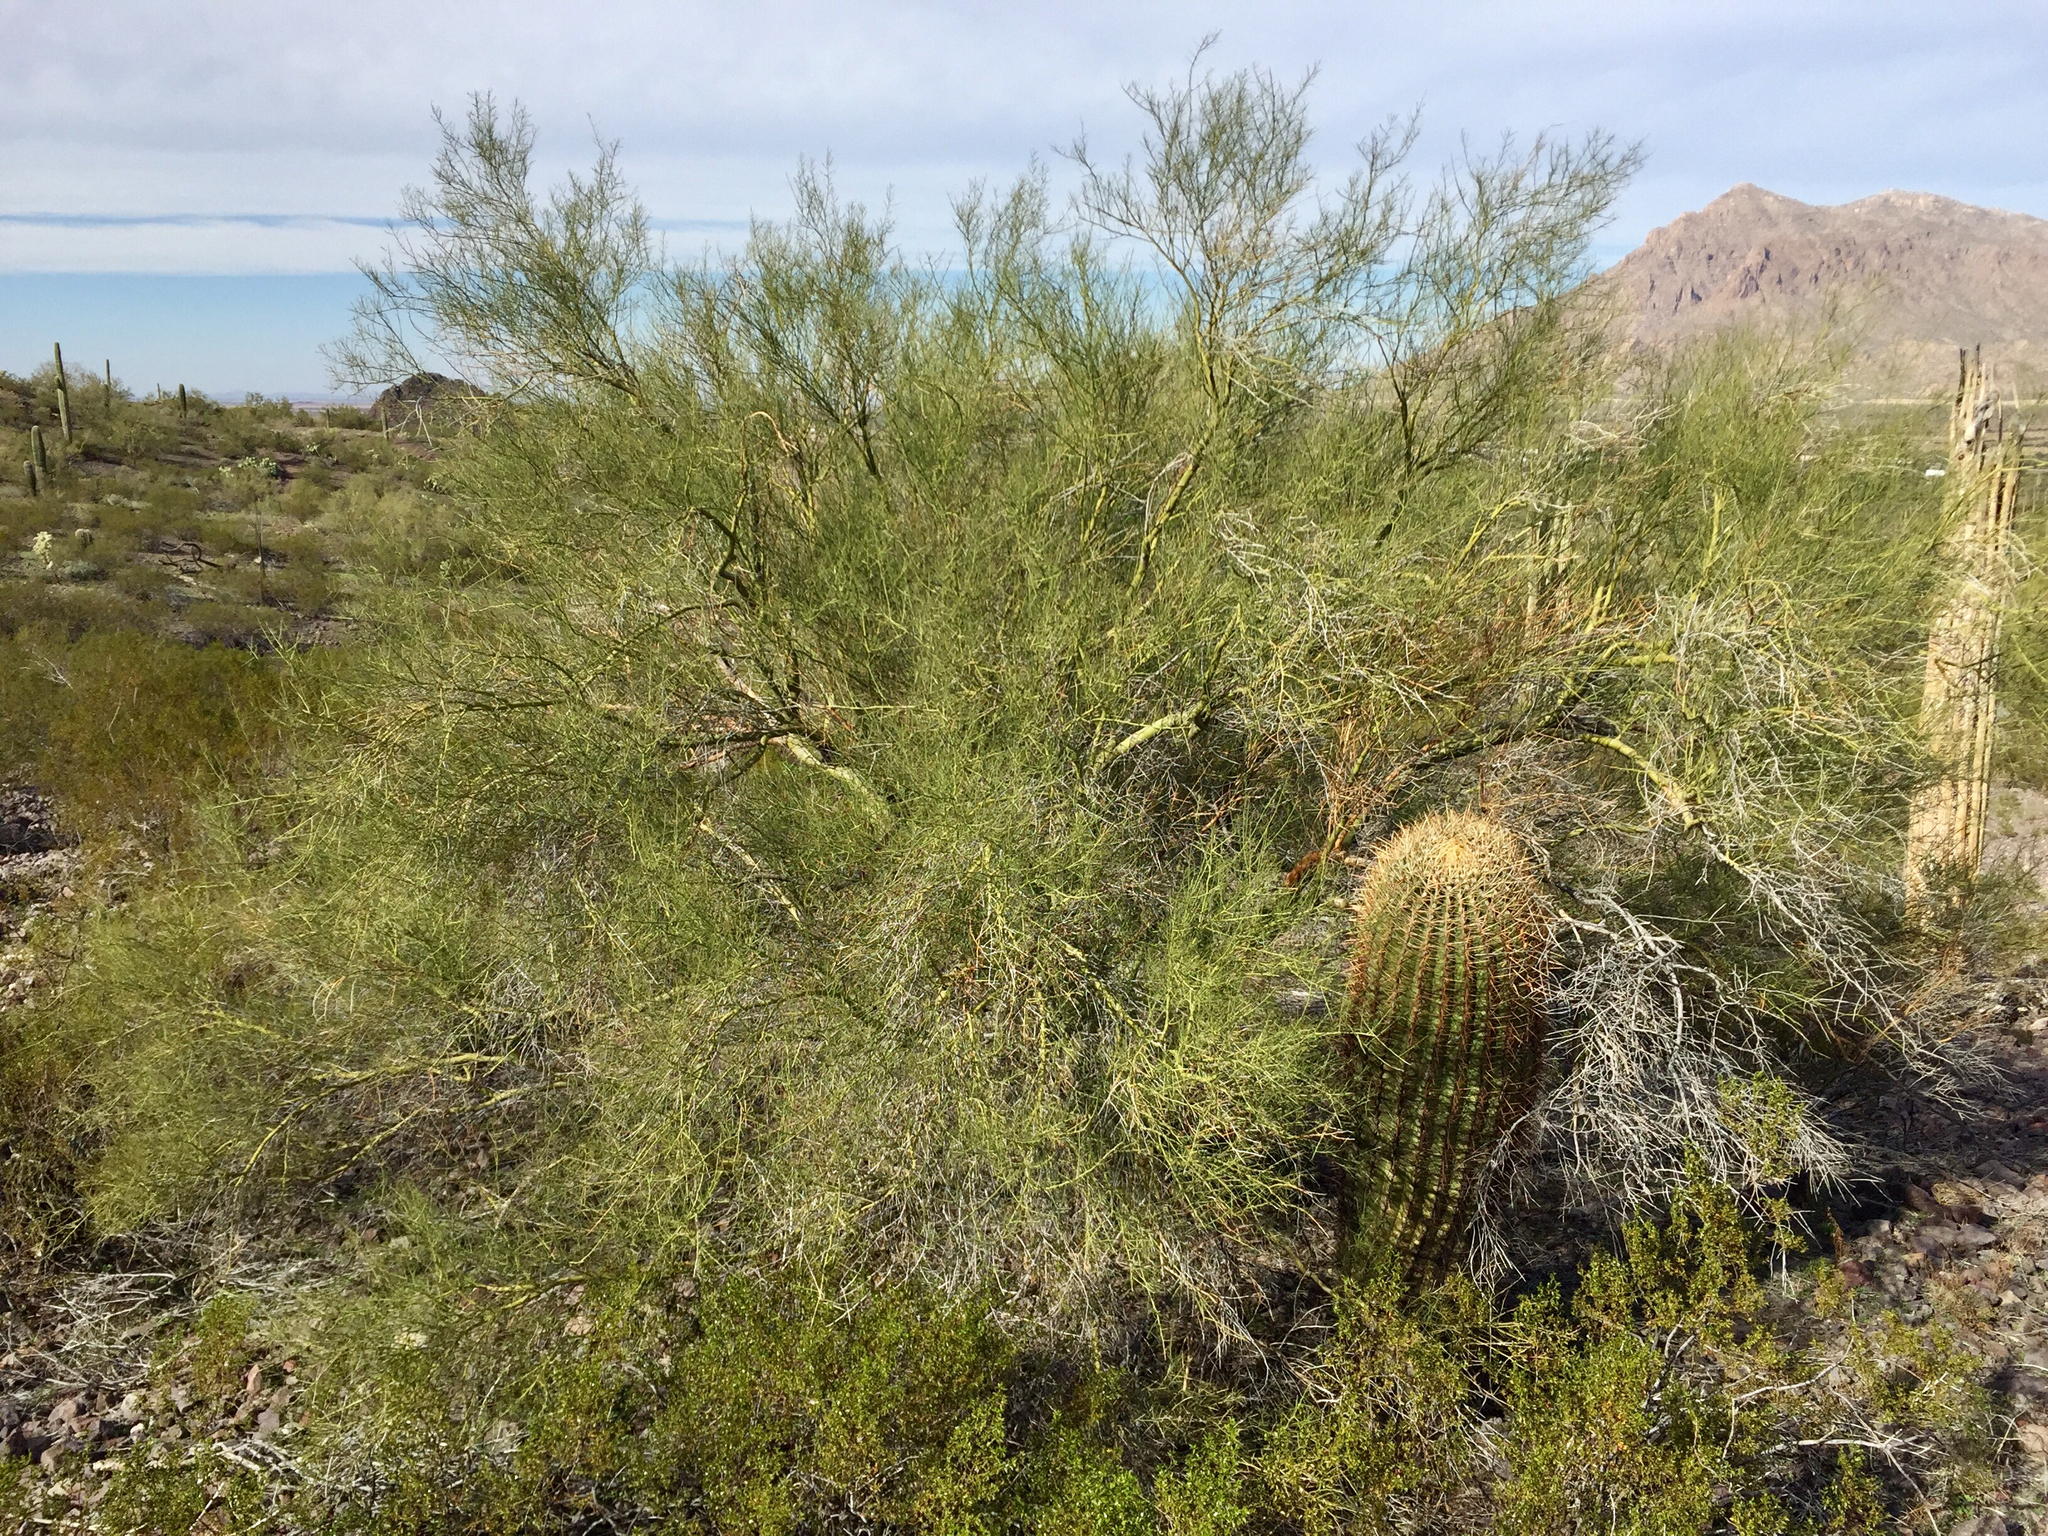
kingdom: Plantae
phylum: Tracheophyta
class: Magnoliopsida
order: Fabales
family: Fabaceae
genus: Parkinsonia
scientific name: Parkinsonia microphylla
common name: Yellow paloverde
